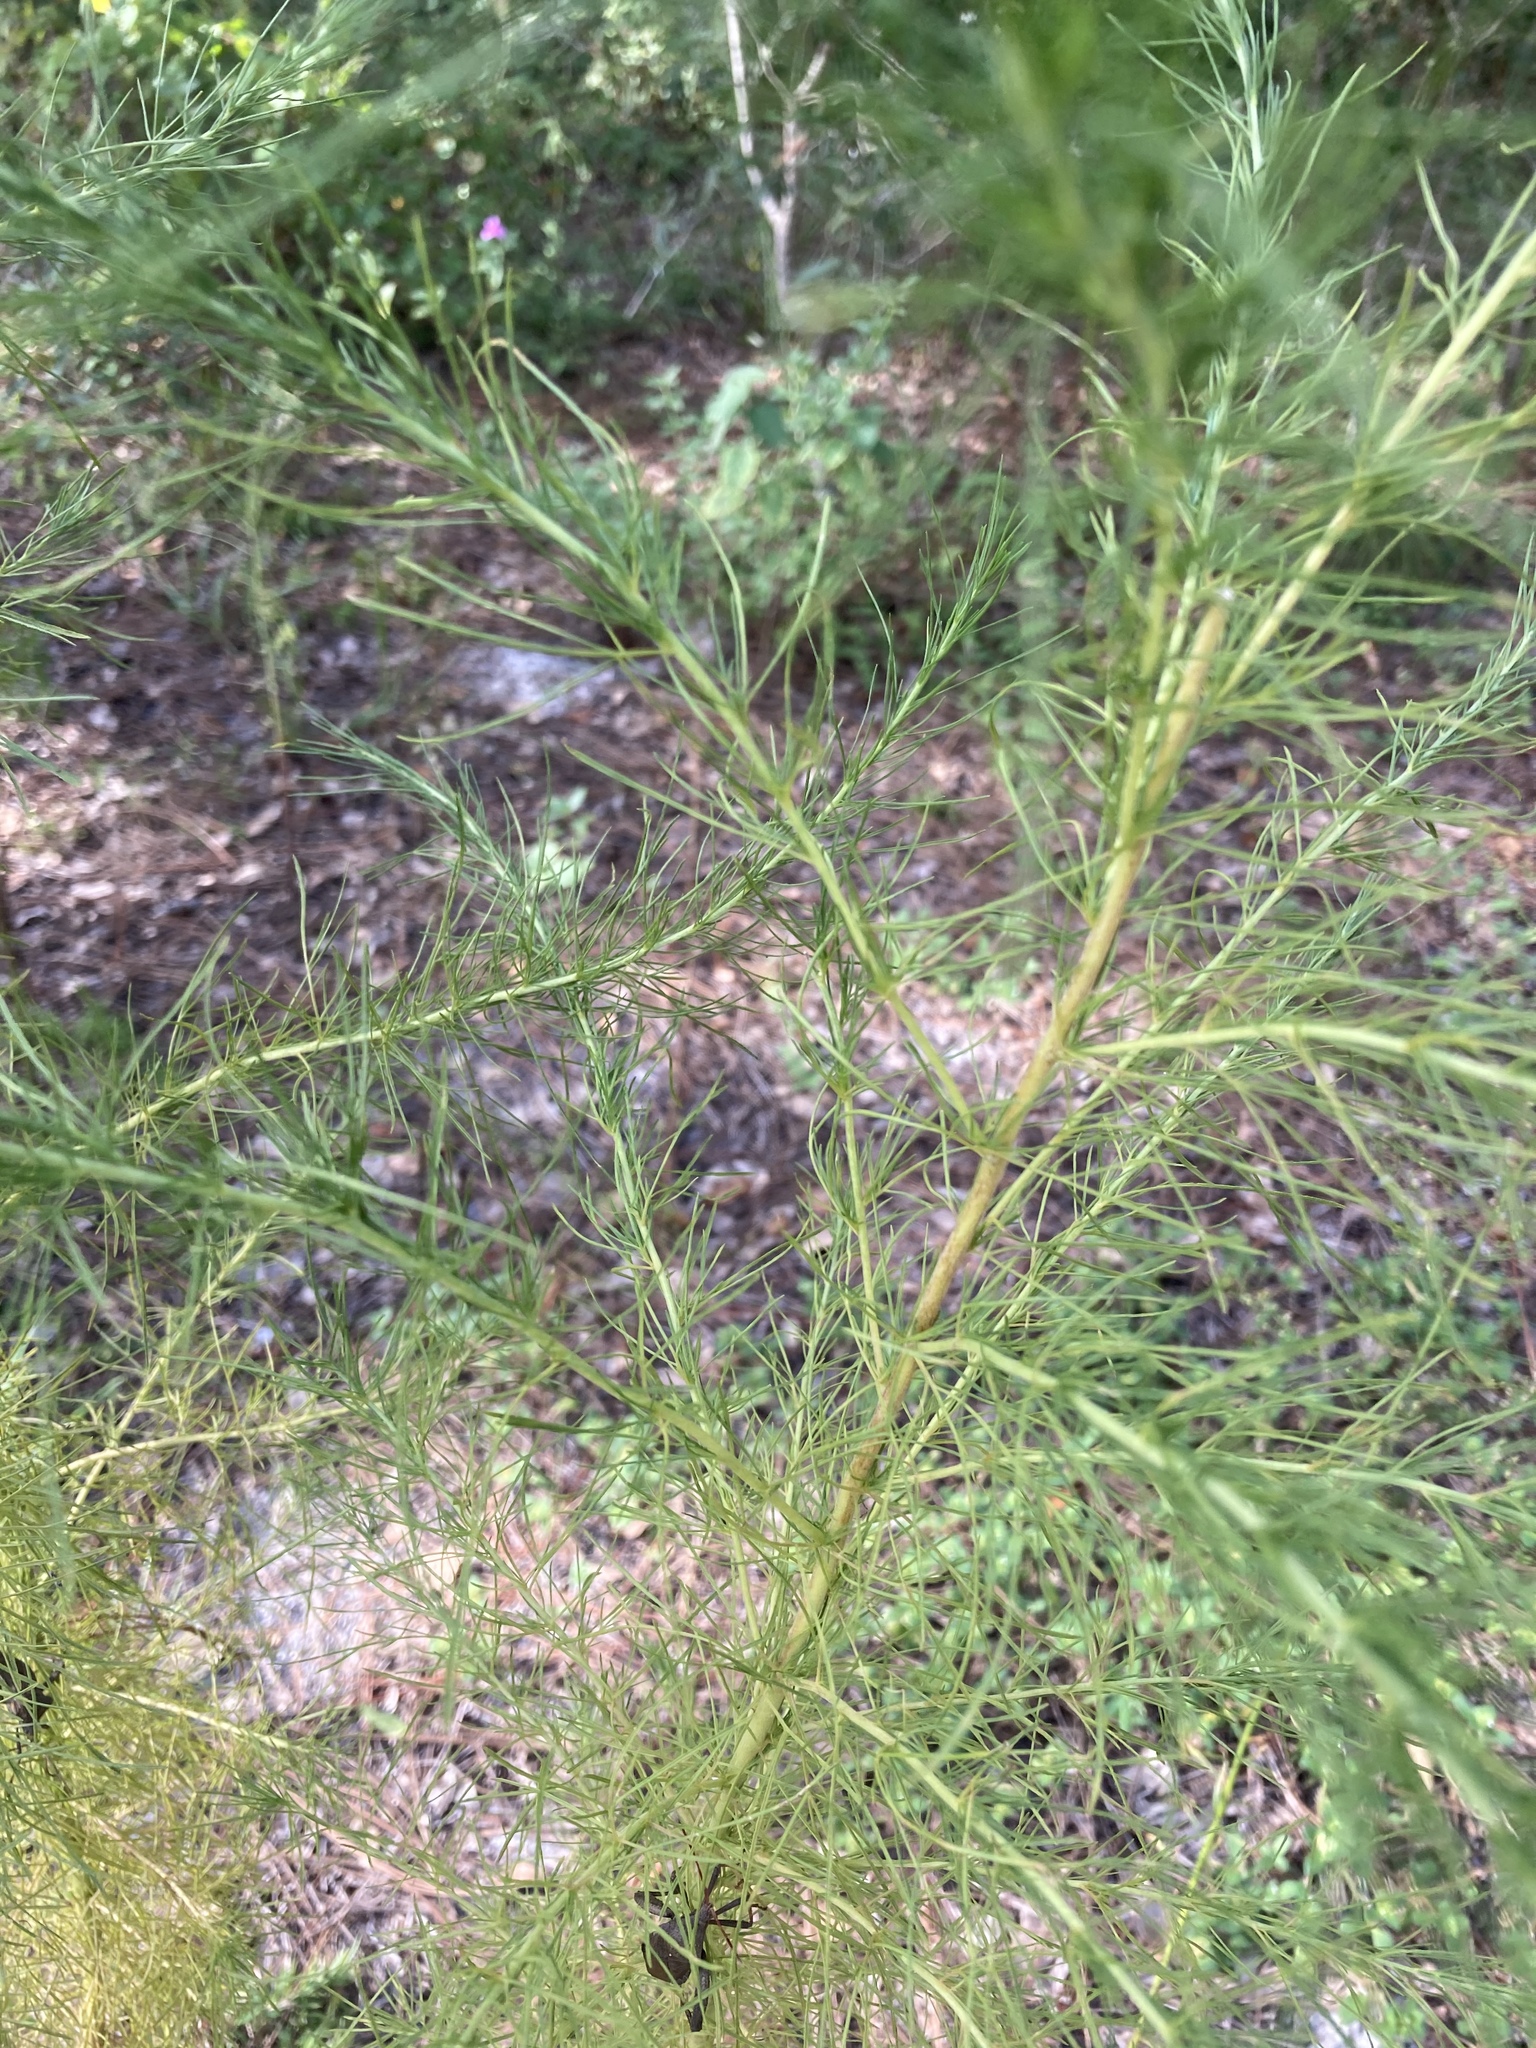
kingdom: Plantae
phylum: Tracheophyta
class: Magnoliopsida
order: Asterales
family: Asteraceae
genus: Eupatorium
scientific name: Eupatorium capillifolium
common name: Dog-fennel
